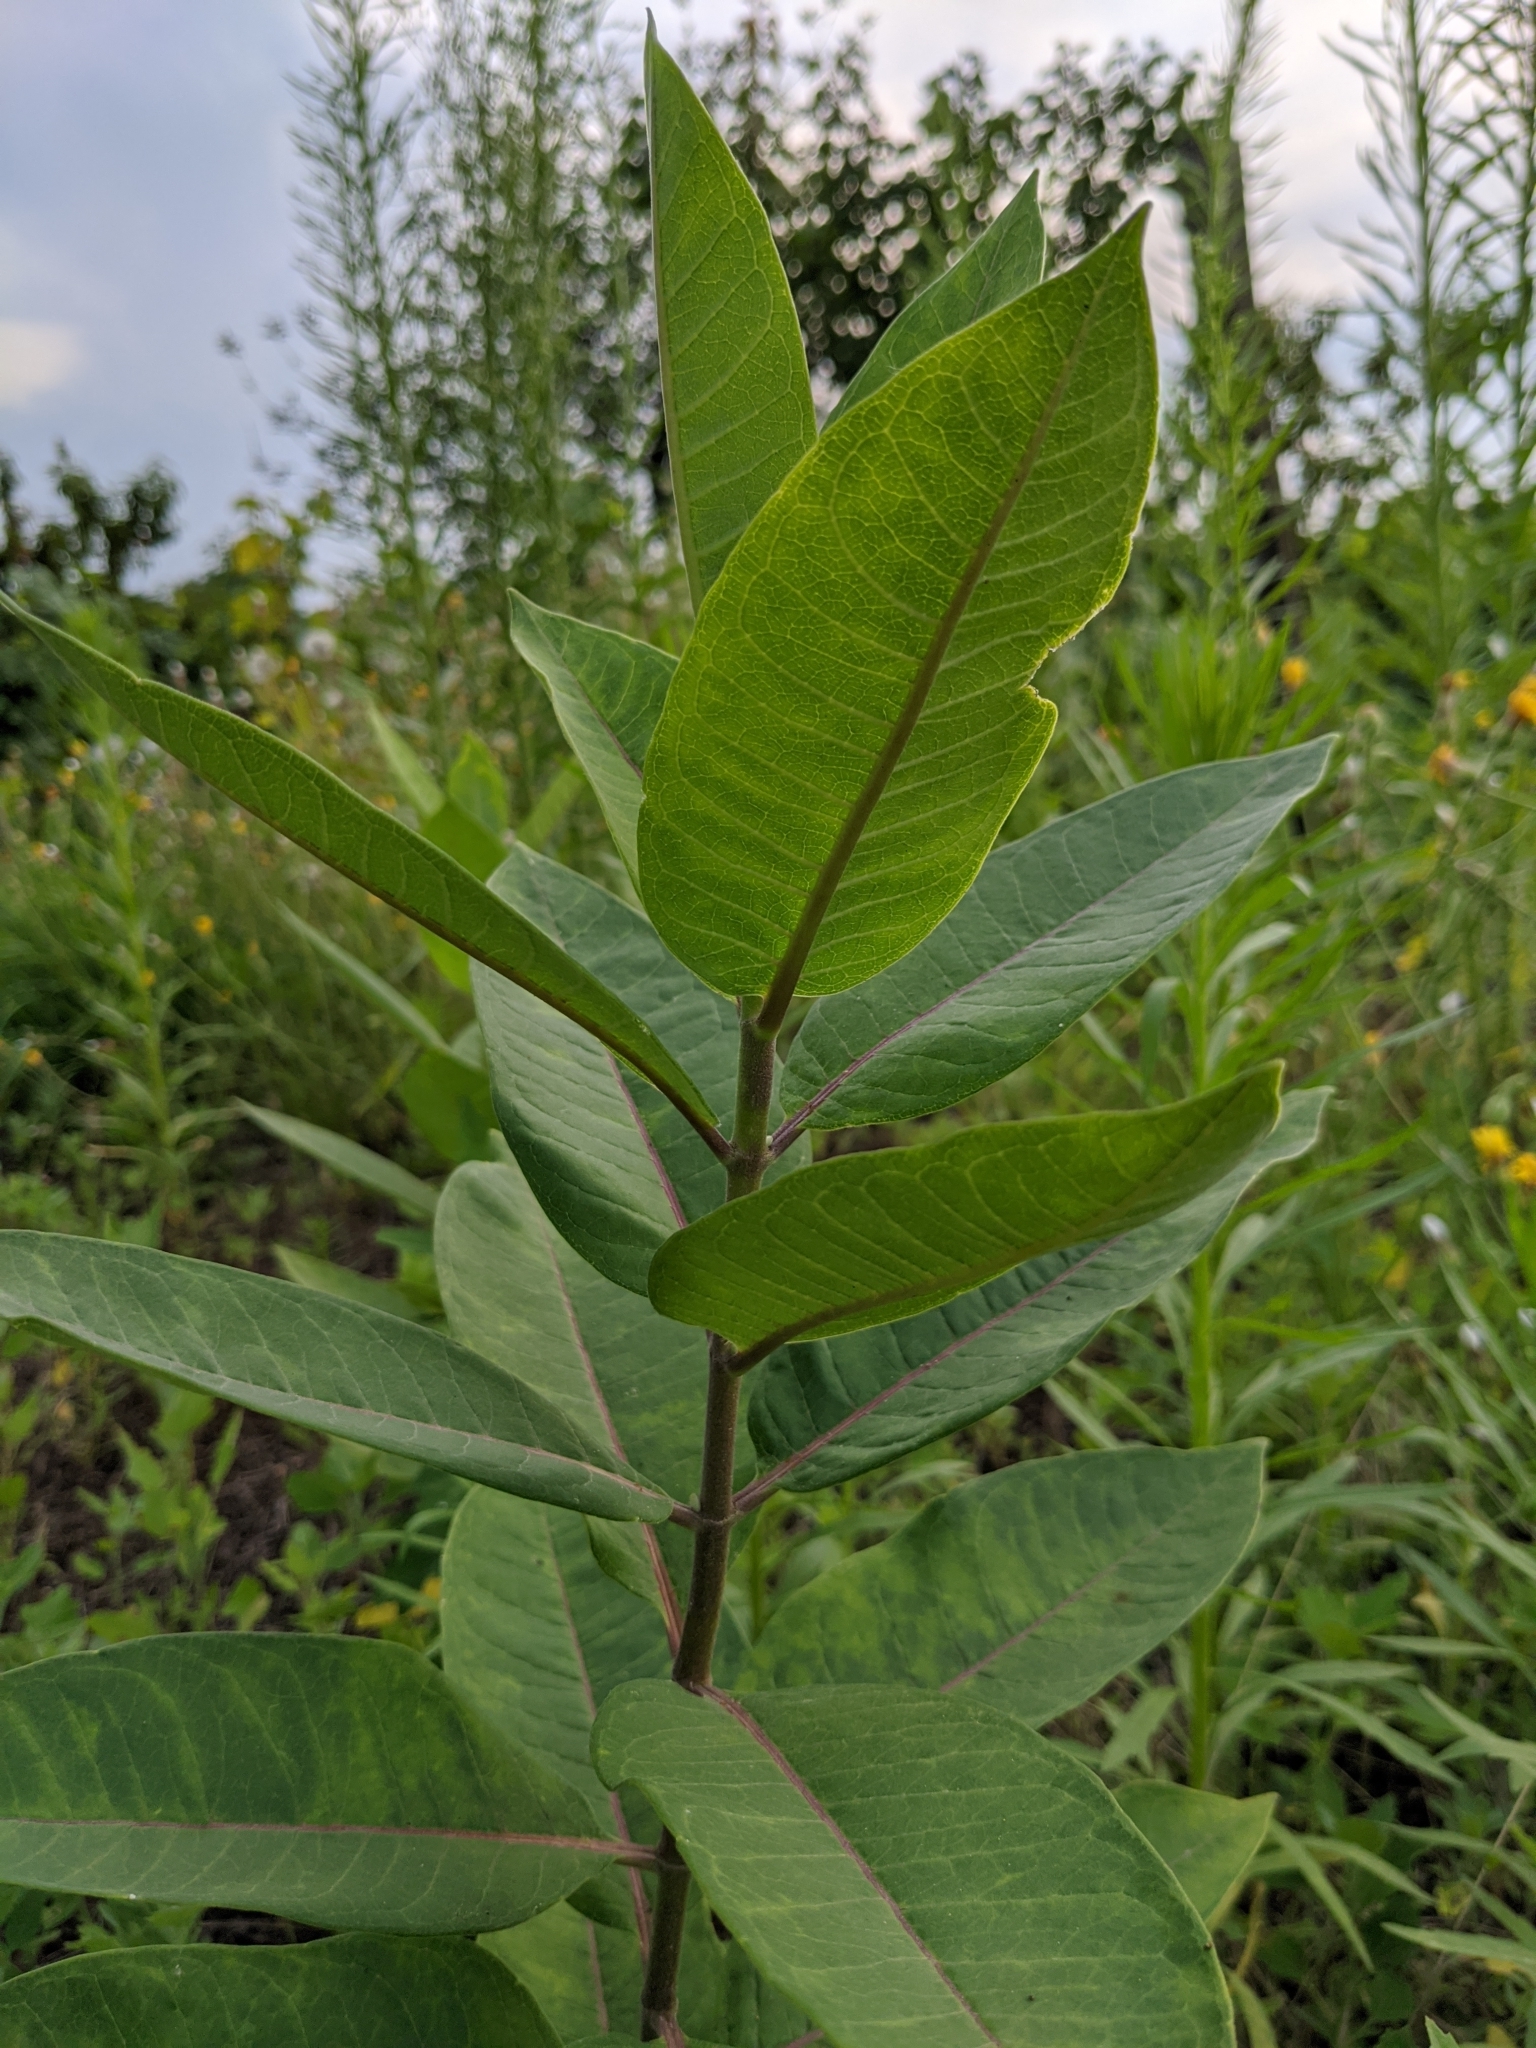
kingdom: Plantae
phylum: Tracheophyta
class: Magnoliopsida
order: Gentianales
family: Apocynaceae
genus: Asclepias
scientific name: Asclepias syriaca
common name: Common milkweed
